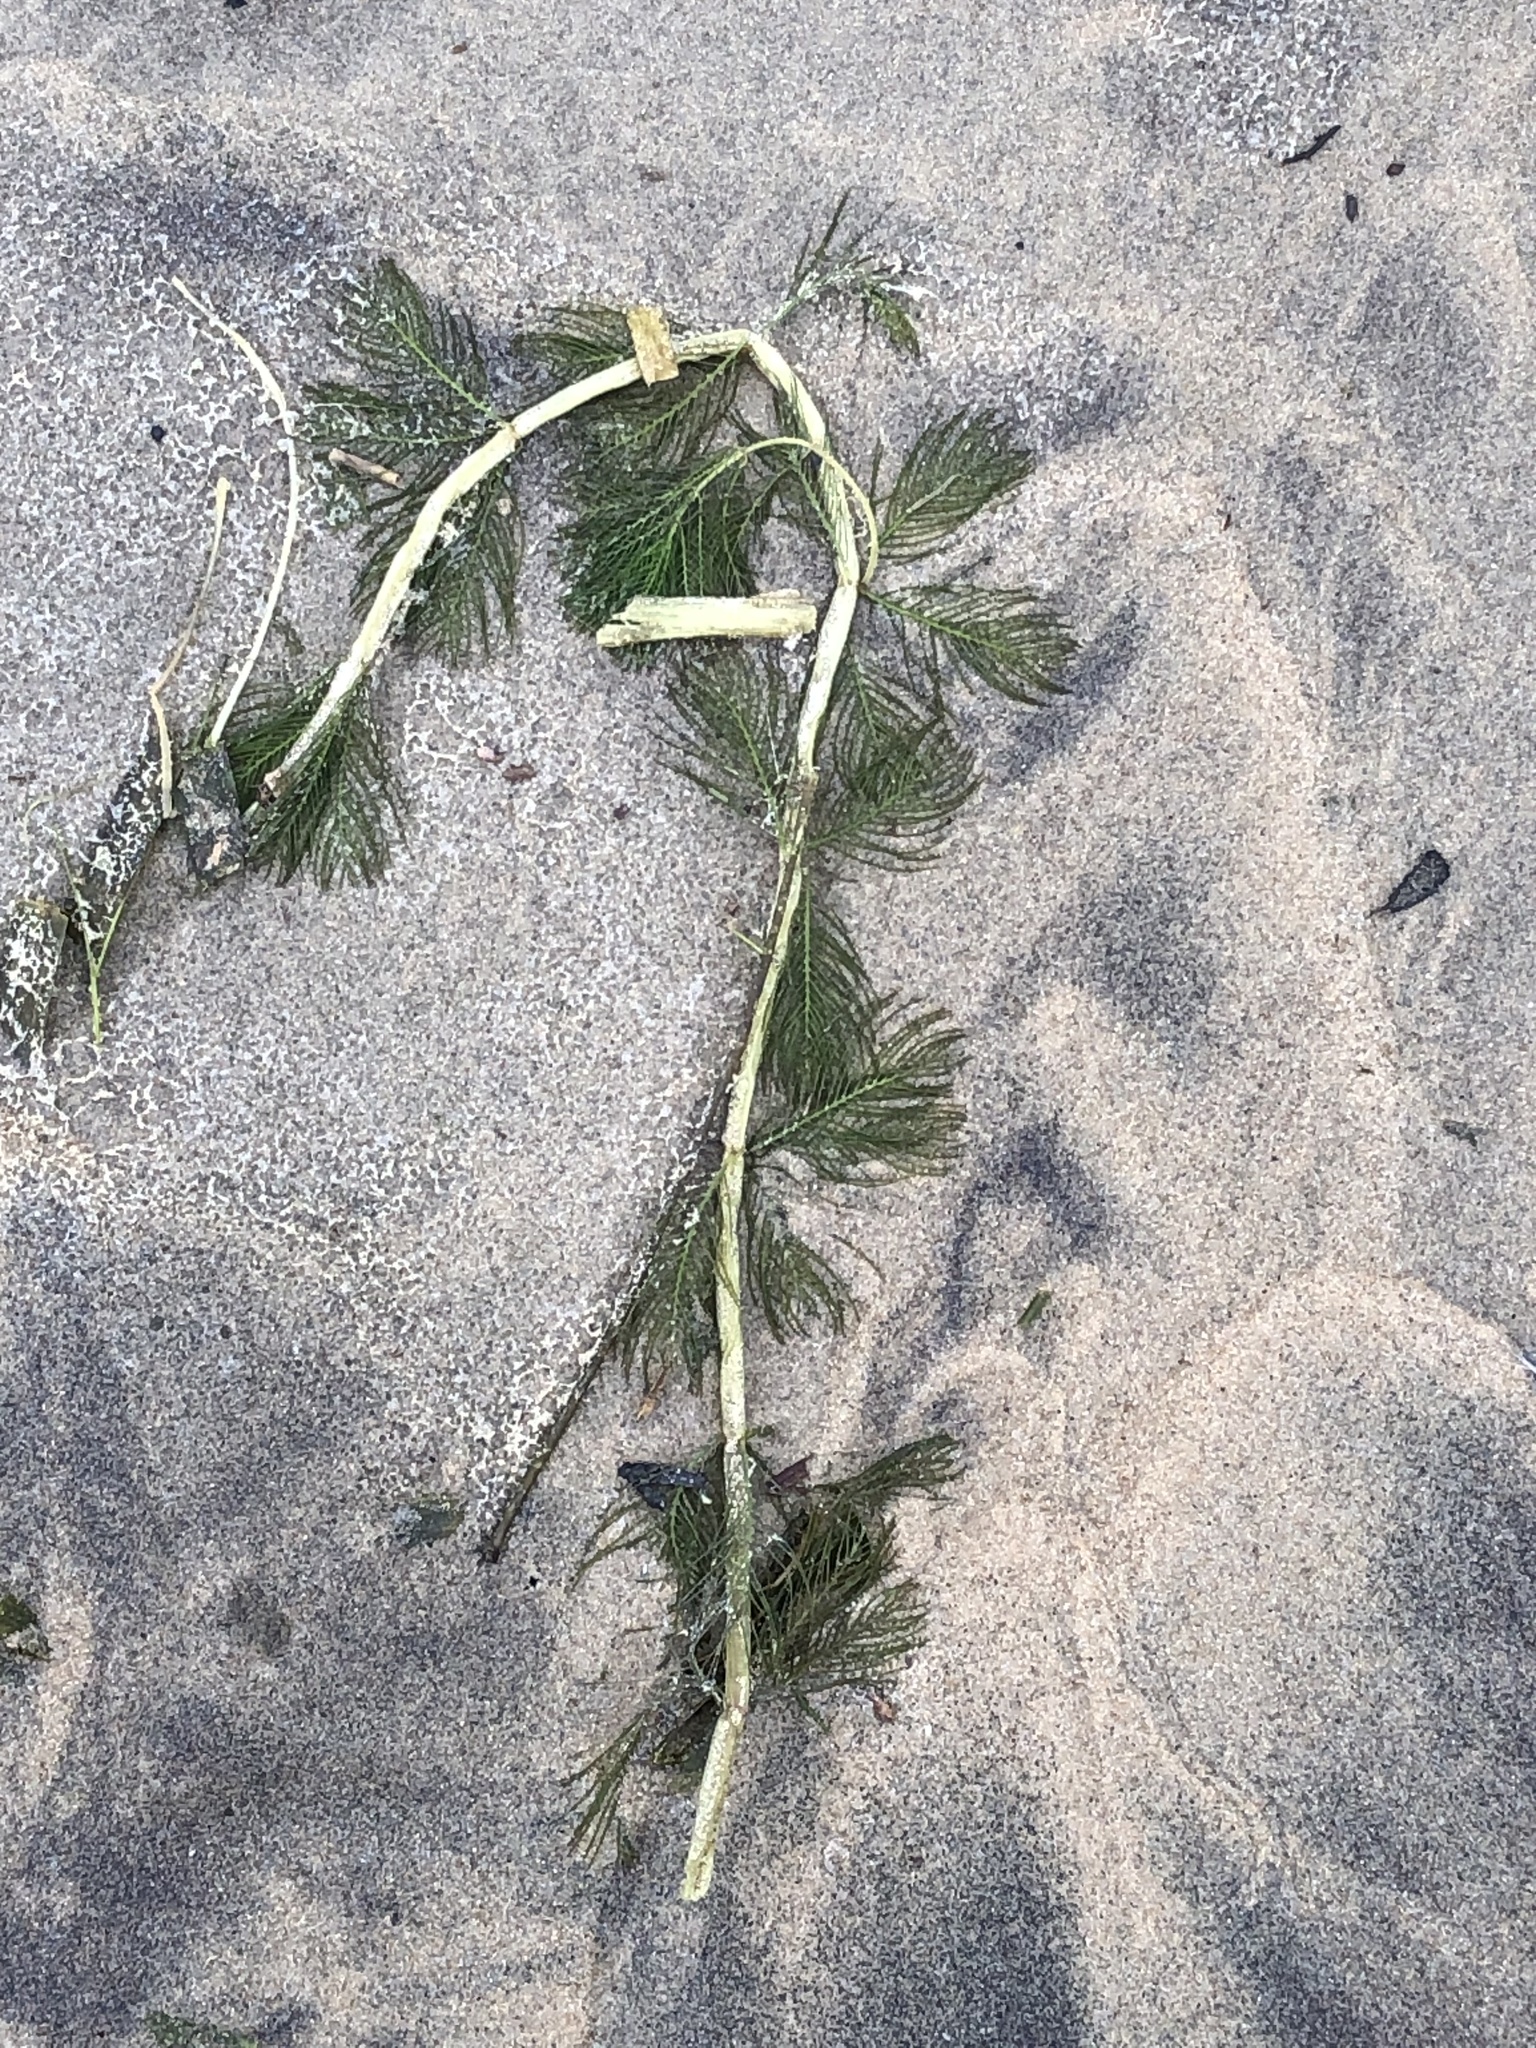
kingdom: Plantae
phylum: Tracheophyta
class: Magnoliopsida
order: Saxifragales
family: Haloragaceae
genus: Myriophyllum
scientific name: Myriophyllum spicatum
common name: Spiked water-milfoil
